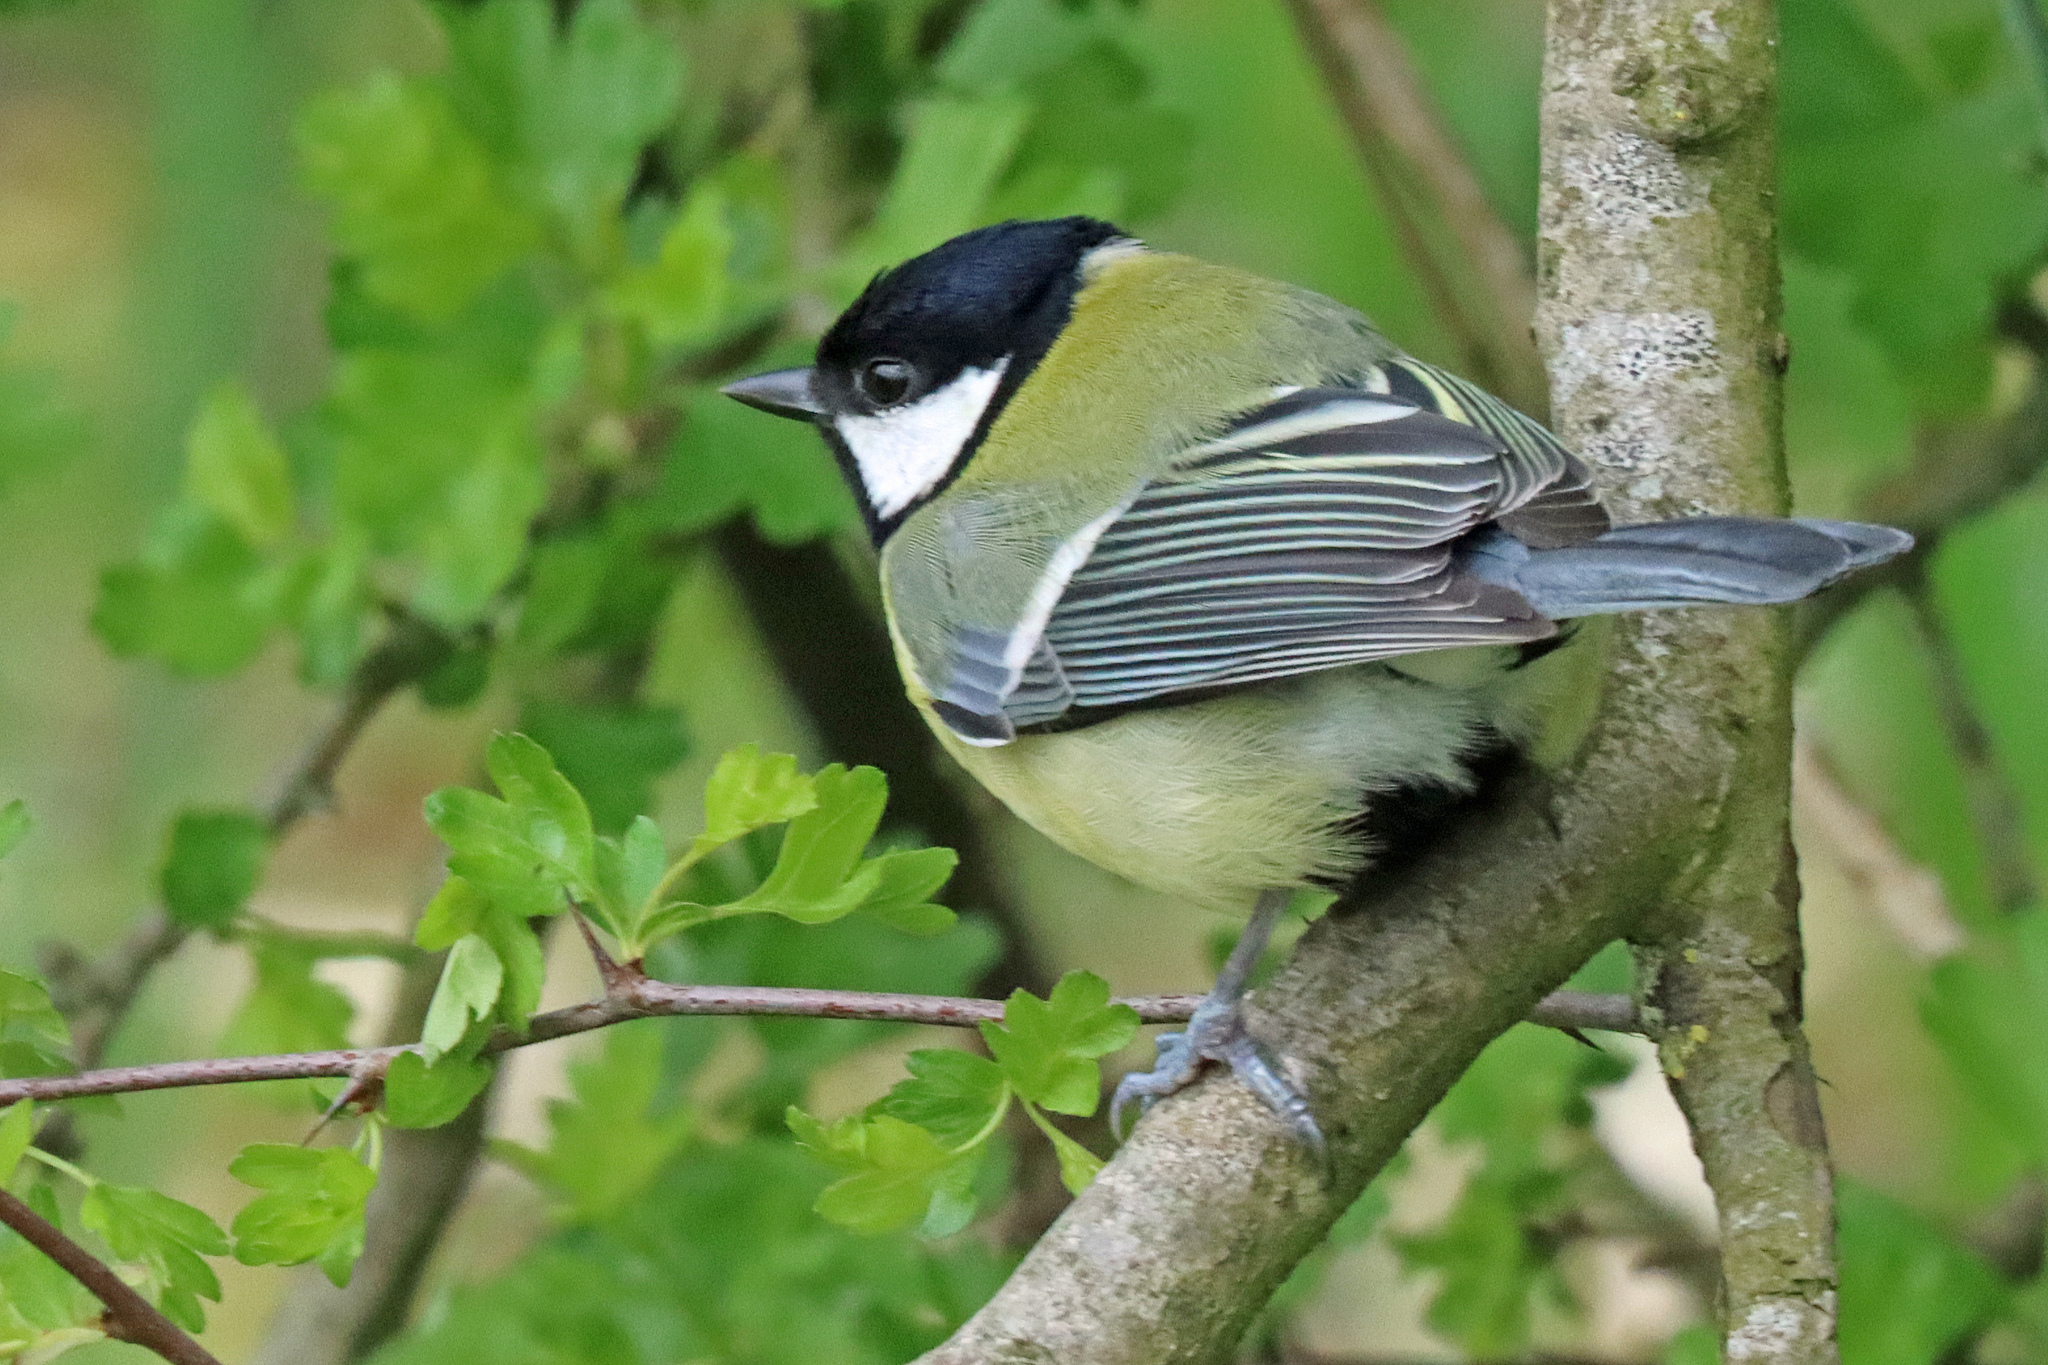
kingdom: Animalia
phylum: Chordata
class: Aves
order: Passeriformes
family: Paridae
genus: Parus
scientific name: Parus major
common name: Great tit
